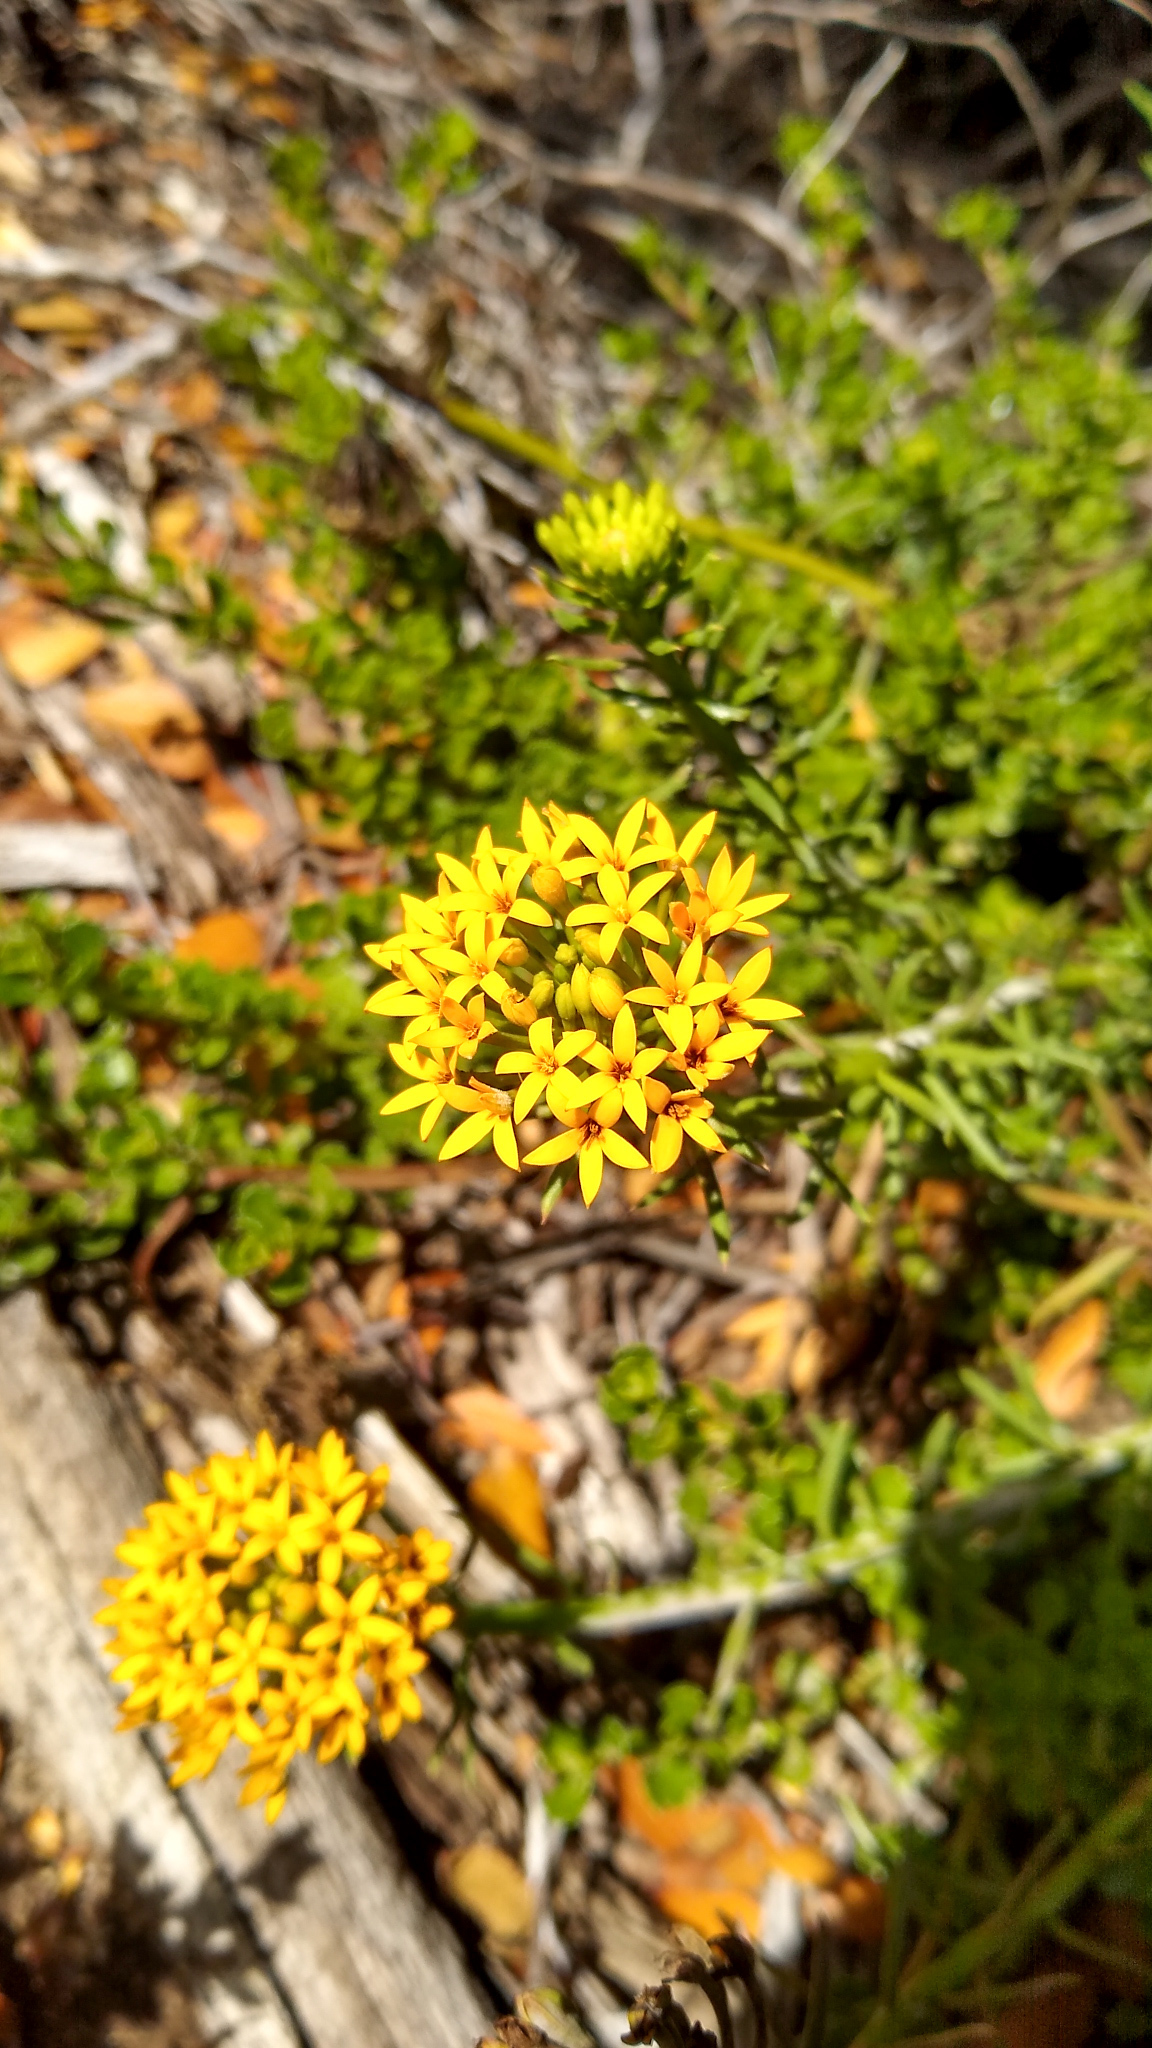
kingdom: Plantae
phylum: Tracheophyta
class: Magnoliopsida
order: Santalales
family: Schoepfiaceae
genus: Quinchamalium
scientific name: Quinchamalium chilense
